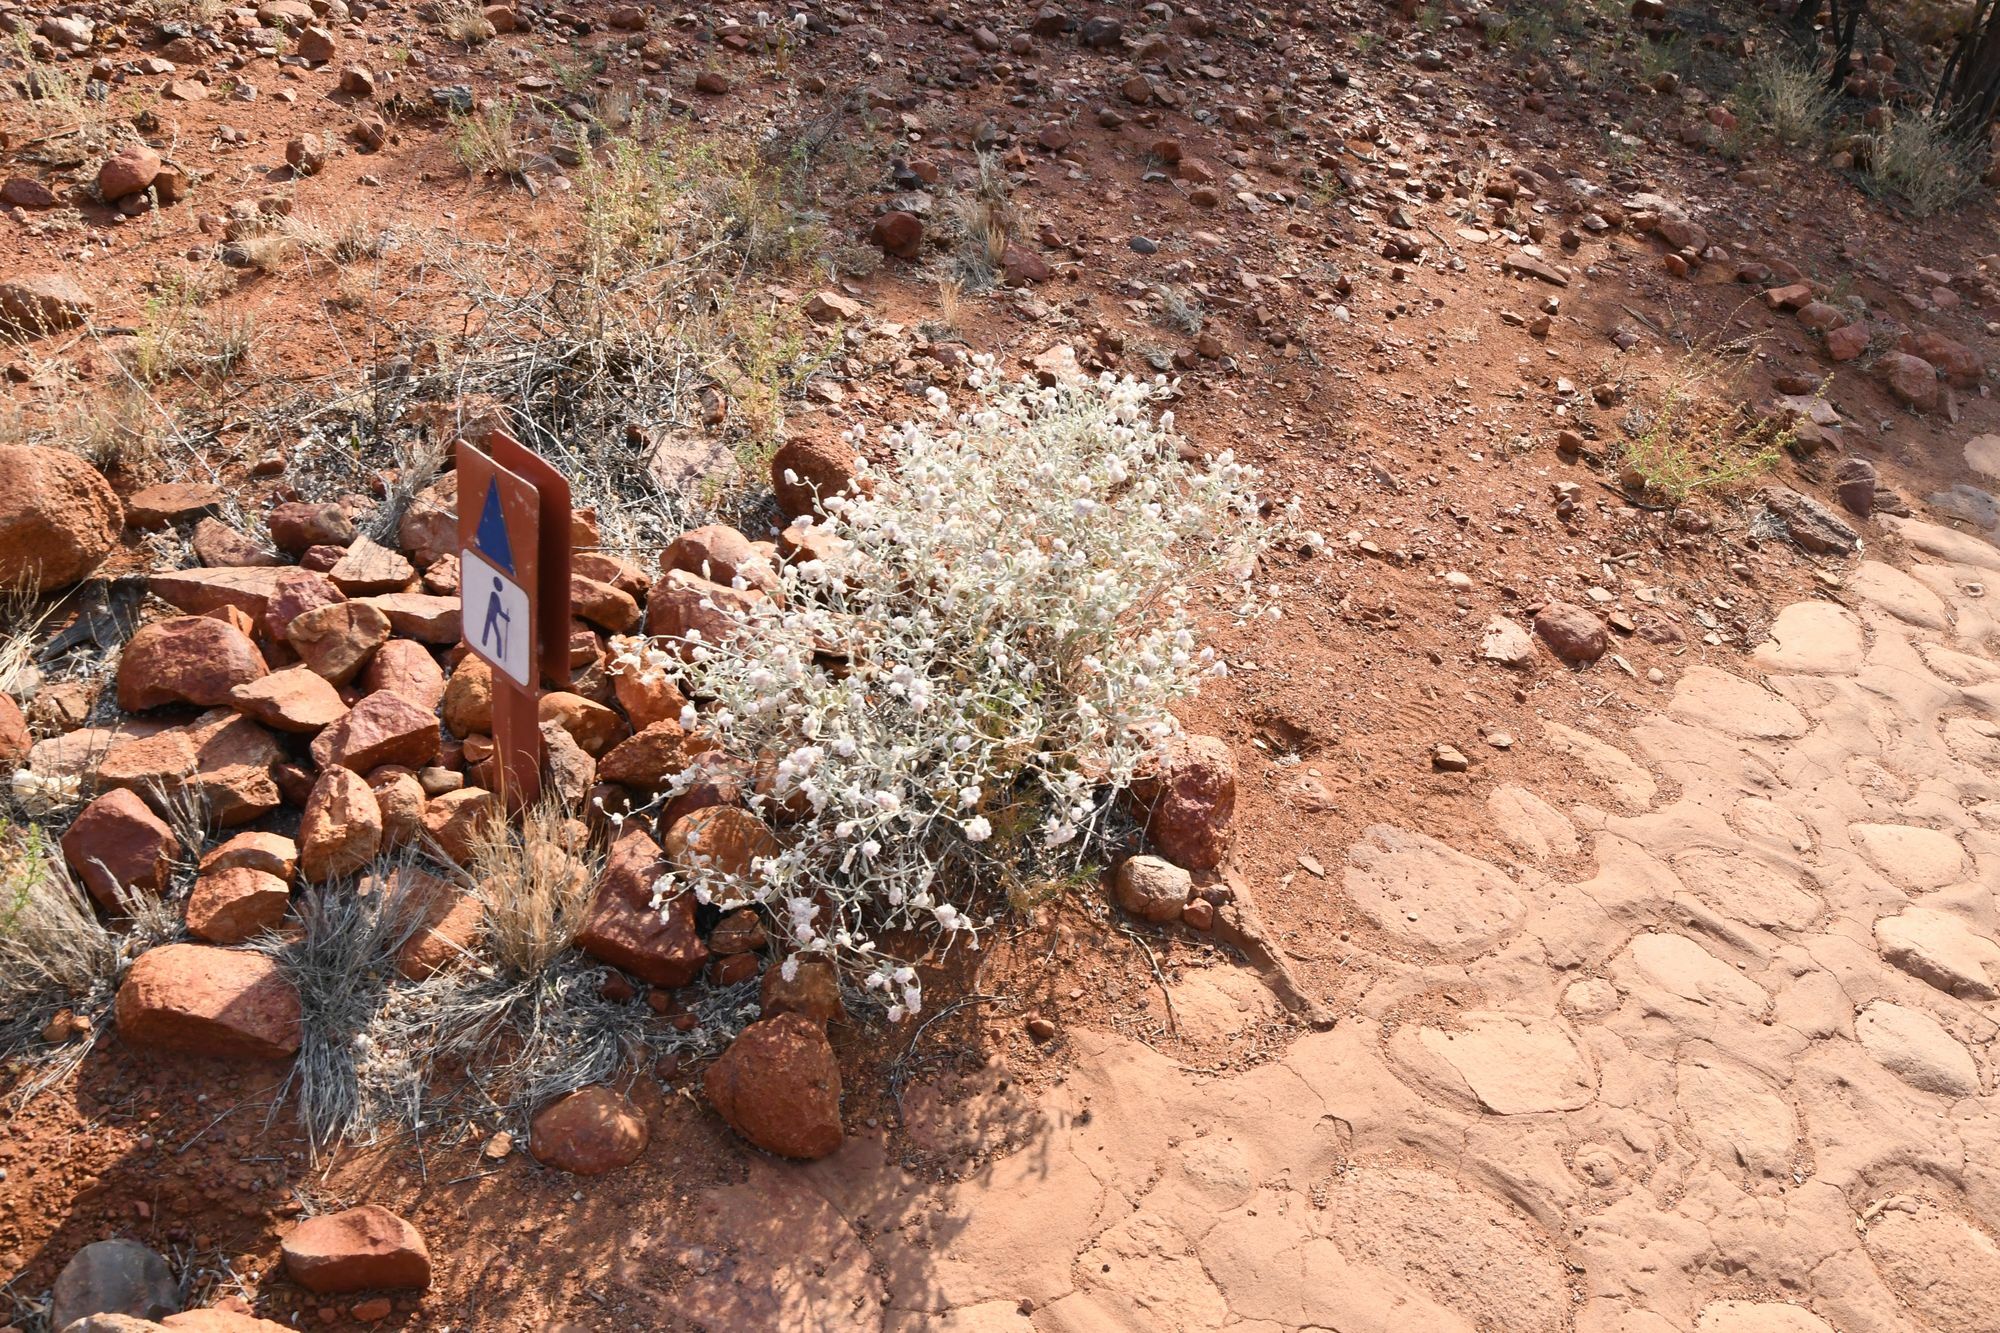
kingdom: Plantae
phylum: Tracheophyta
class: Magnoliopsida
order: Caryophyllales
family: Amaranthaceae
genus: Ptilotus
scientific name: Ptilotus obovatus
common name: Cottonbush
